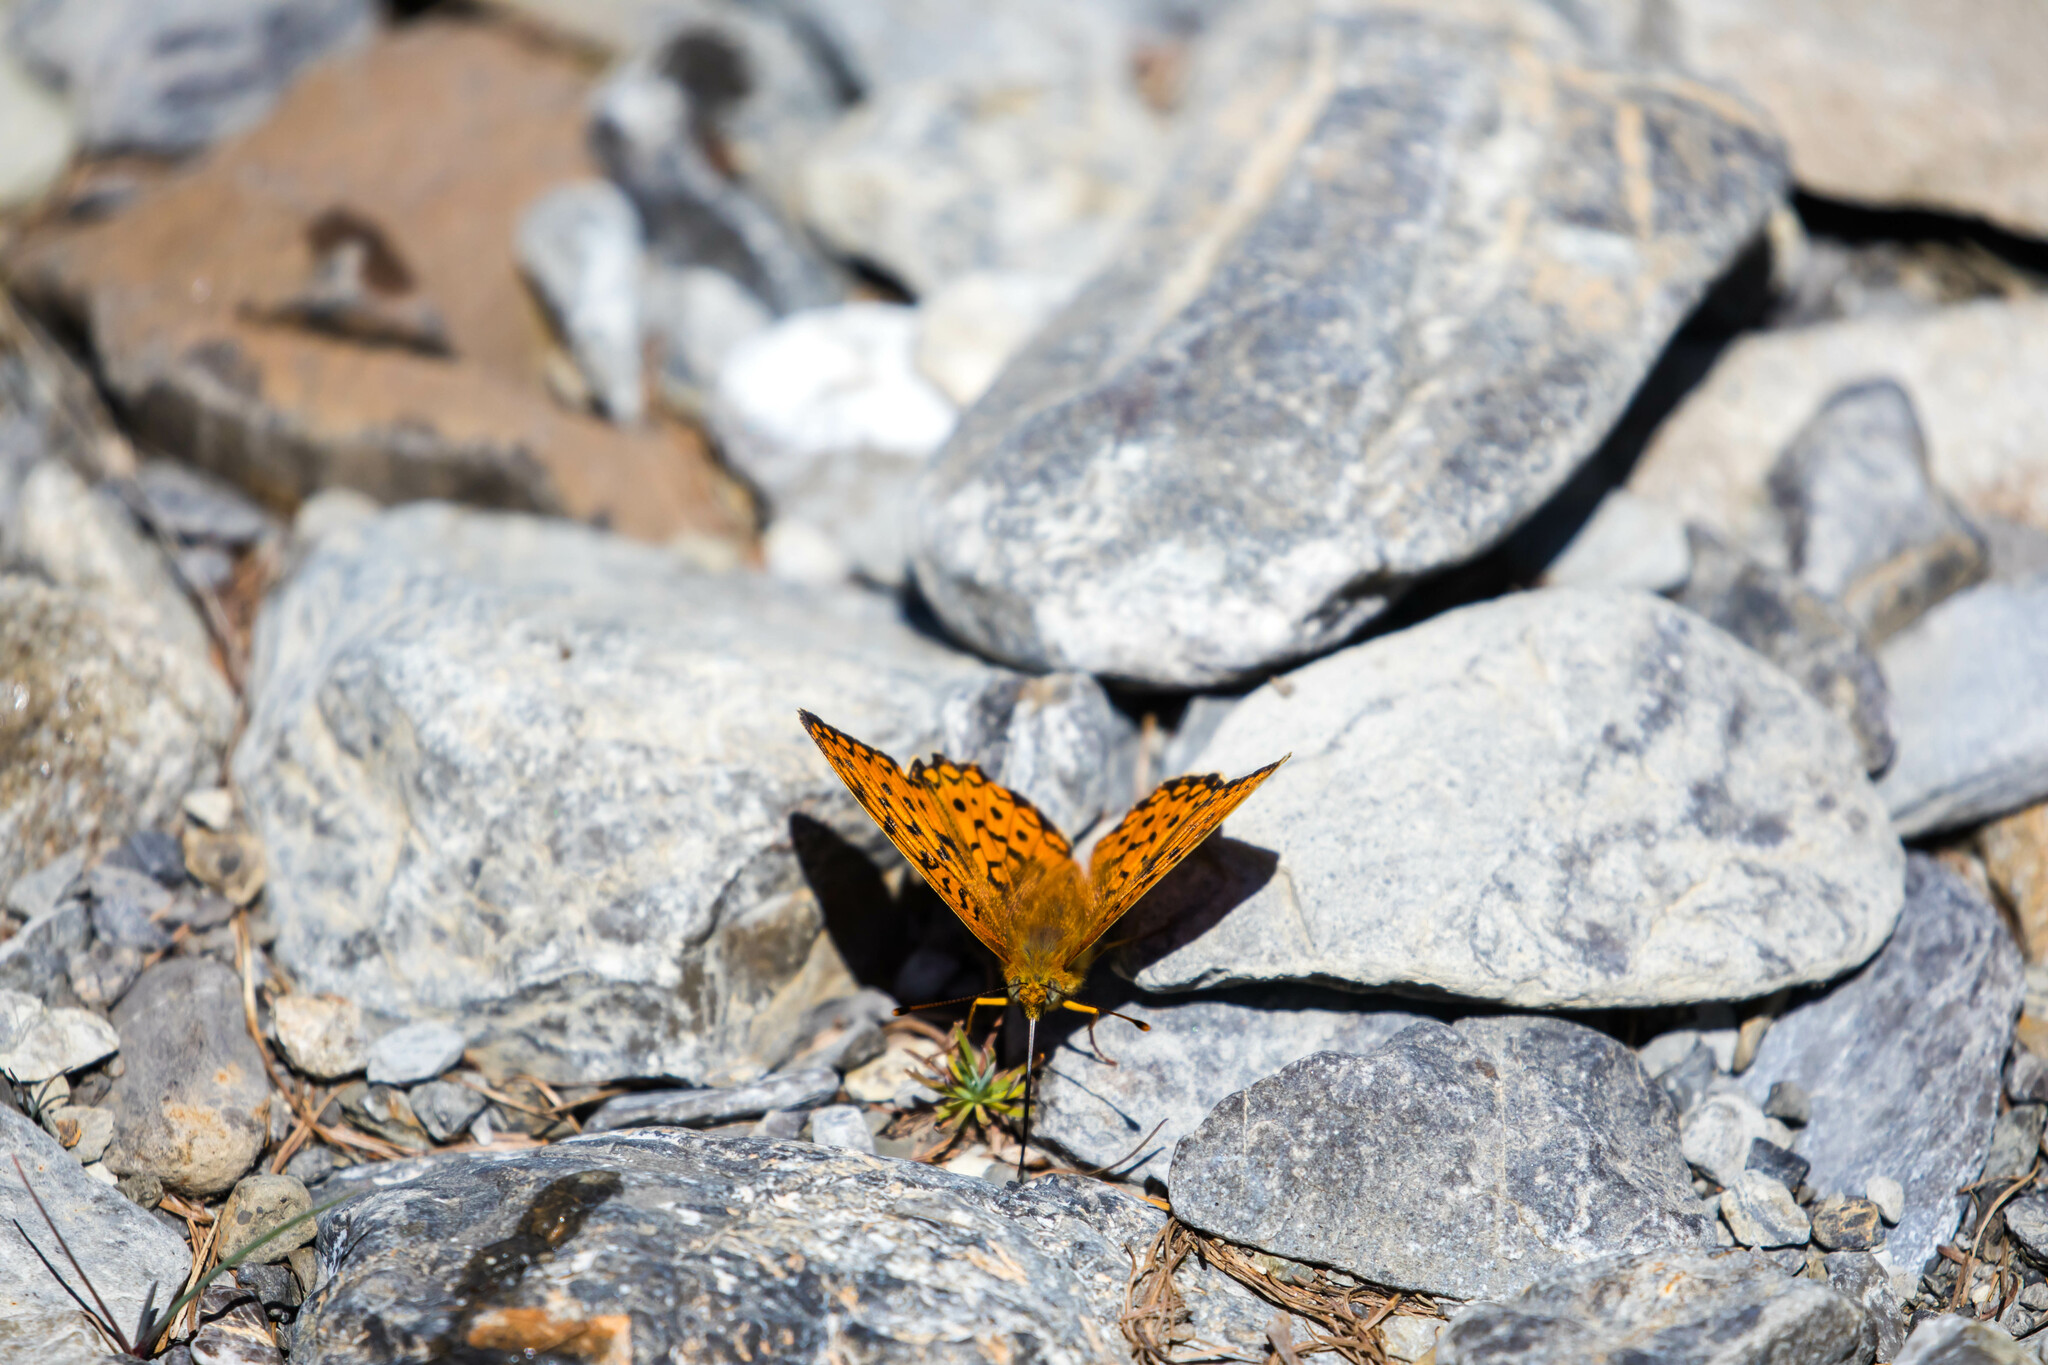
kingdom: Animalia
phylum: Arthropoda
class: Insecta
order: Lepidoptera
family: Nymphalidae
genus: Fabriciana
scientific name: Fabriciana niobe
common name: Niobe fritillary
